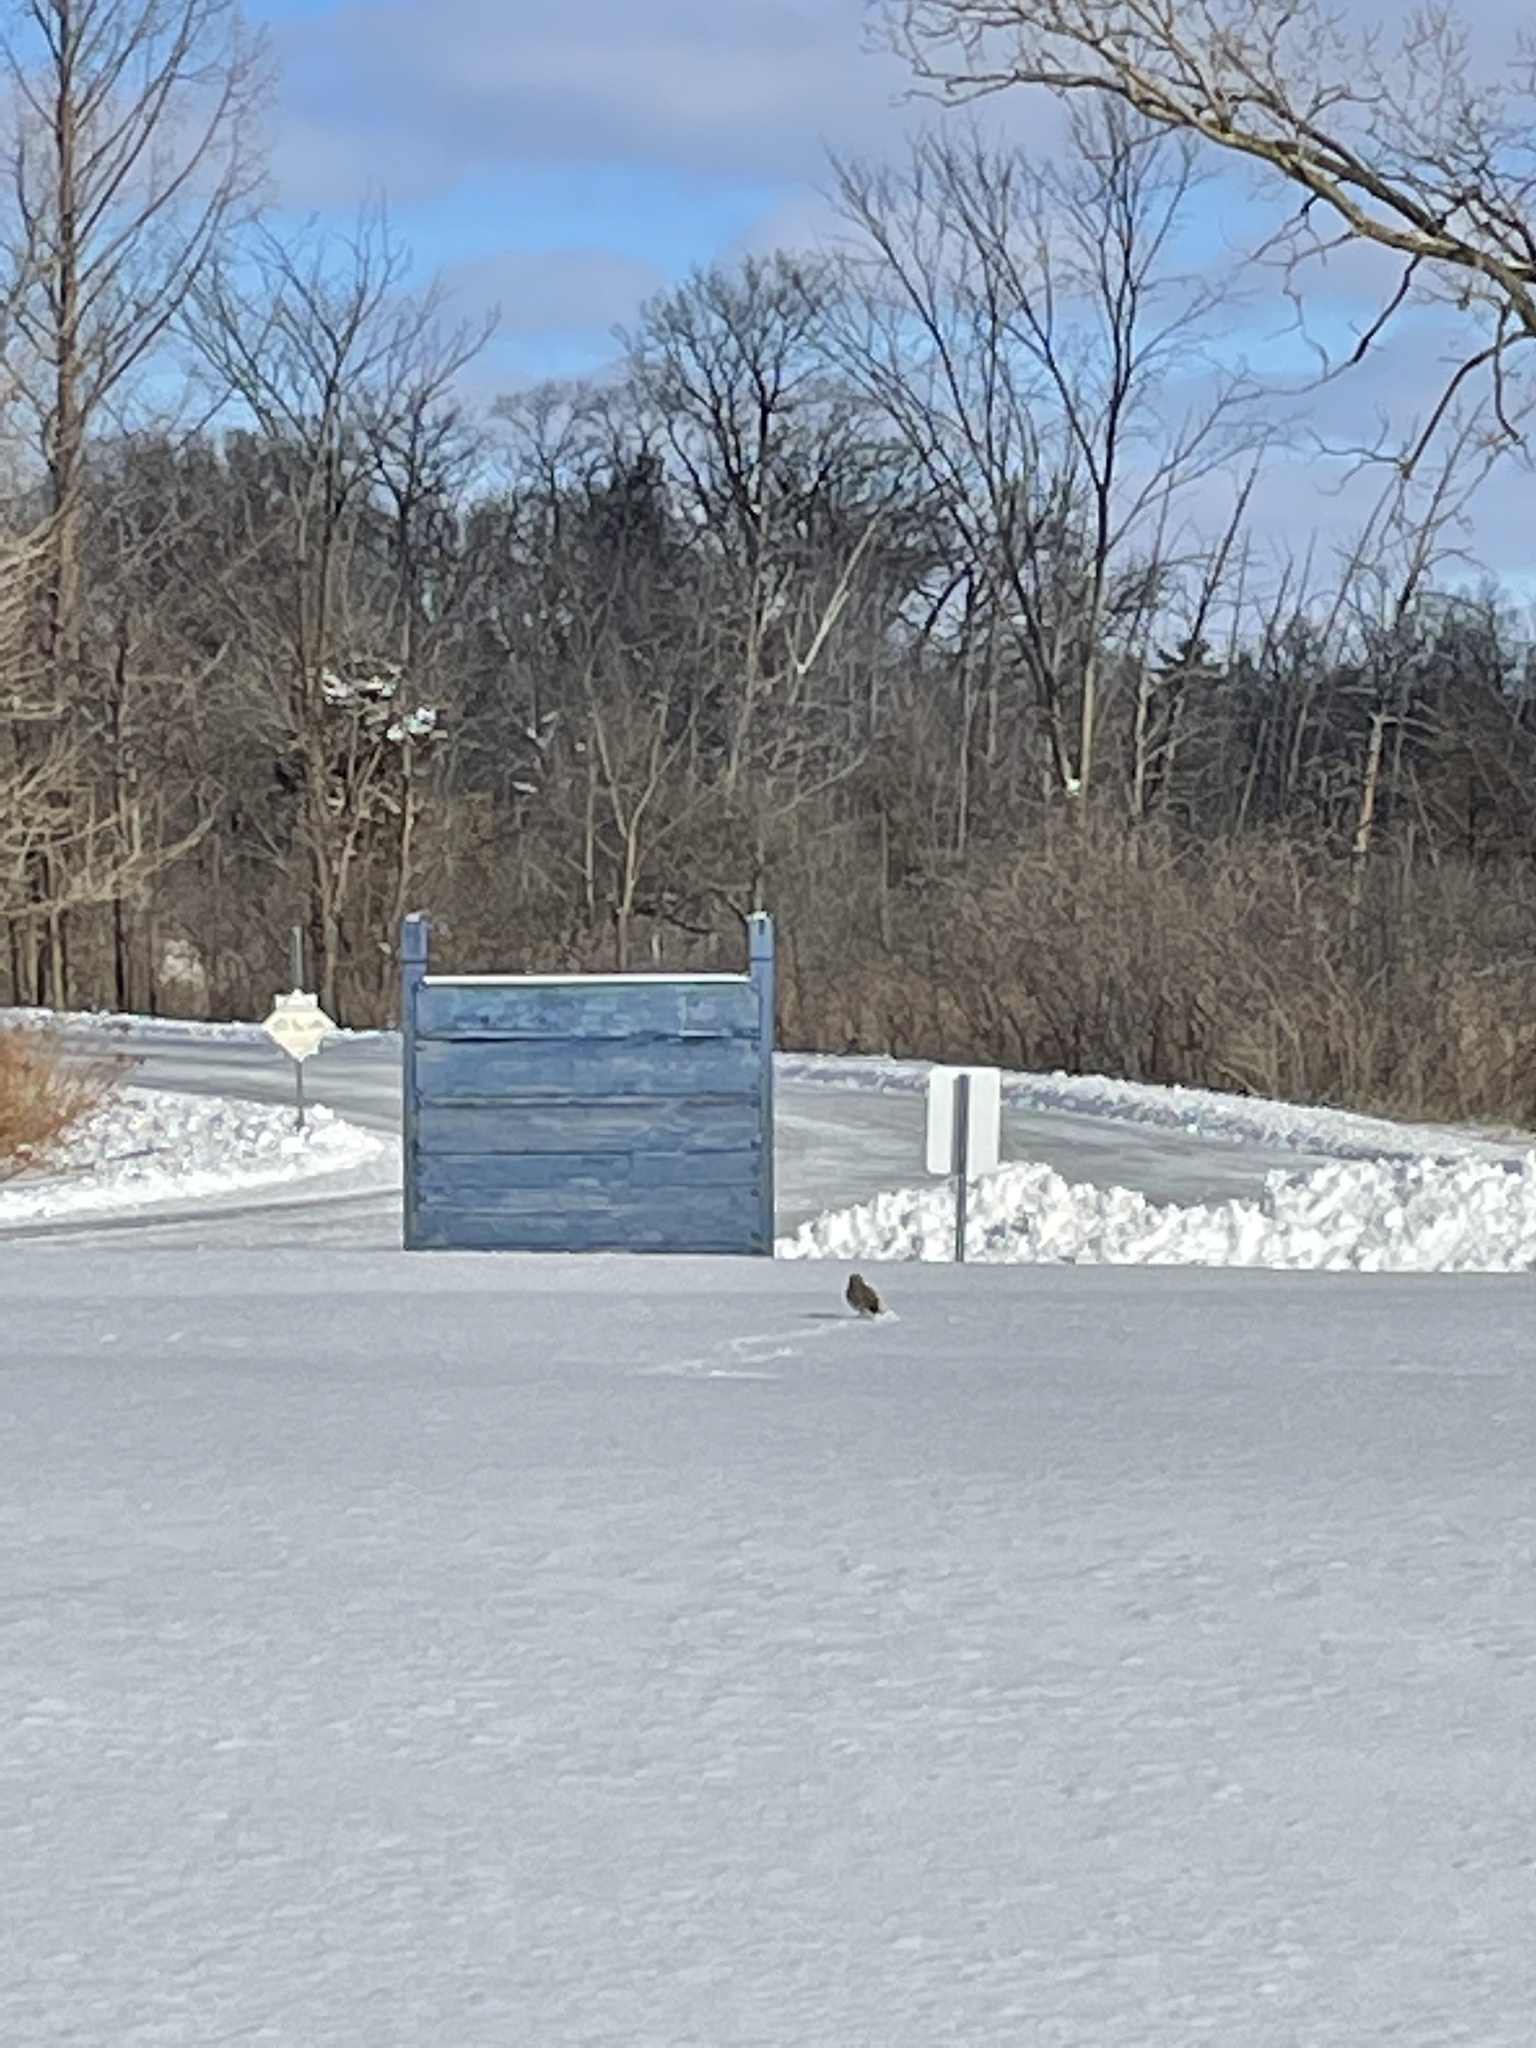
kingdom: Animalia
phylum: Chordata
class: Aves
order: Passeriformes
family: Alaudidae
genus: Eremophila
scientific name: Eremophila alpestris
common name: Horned lark
